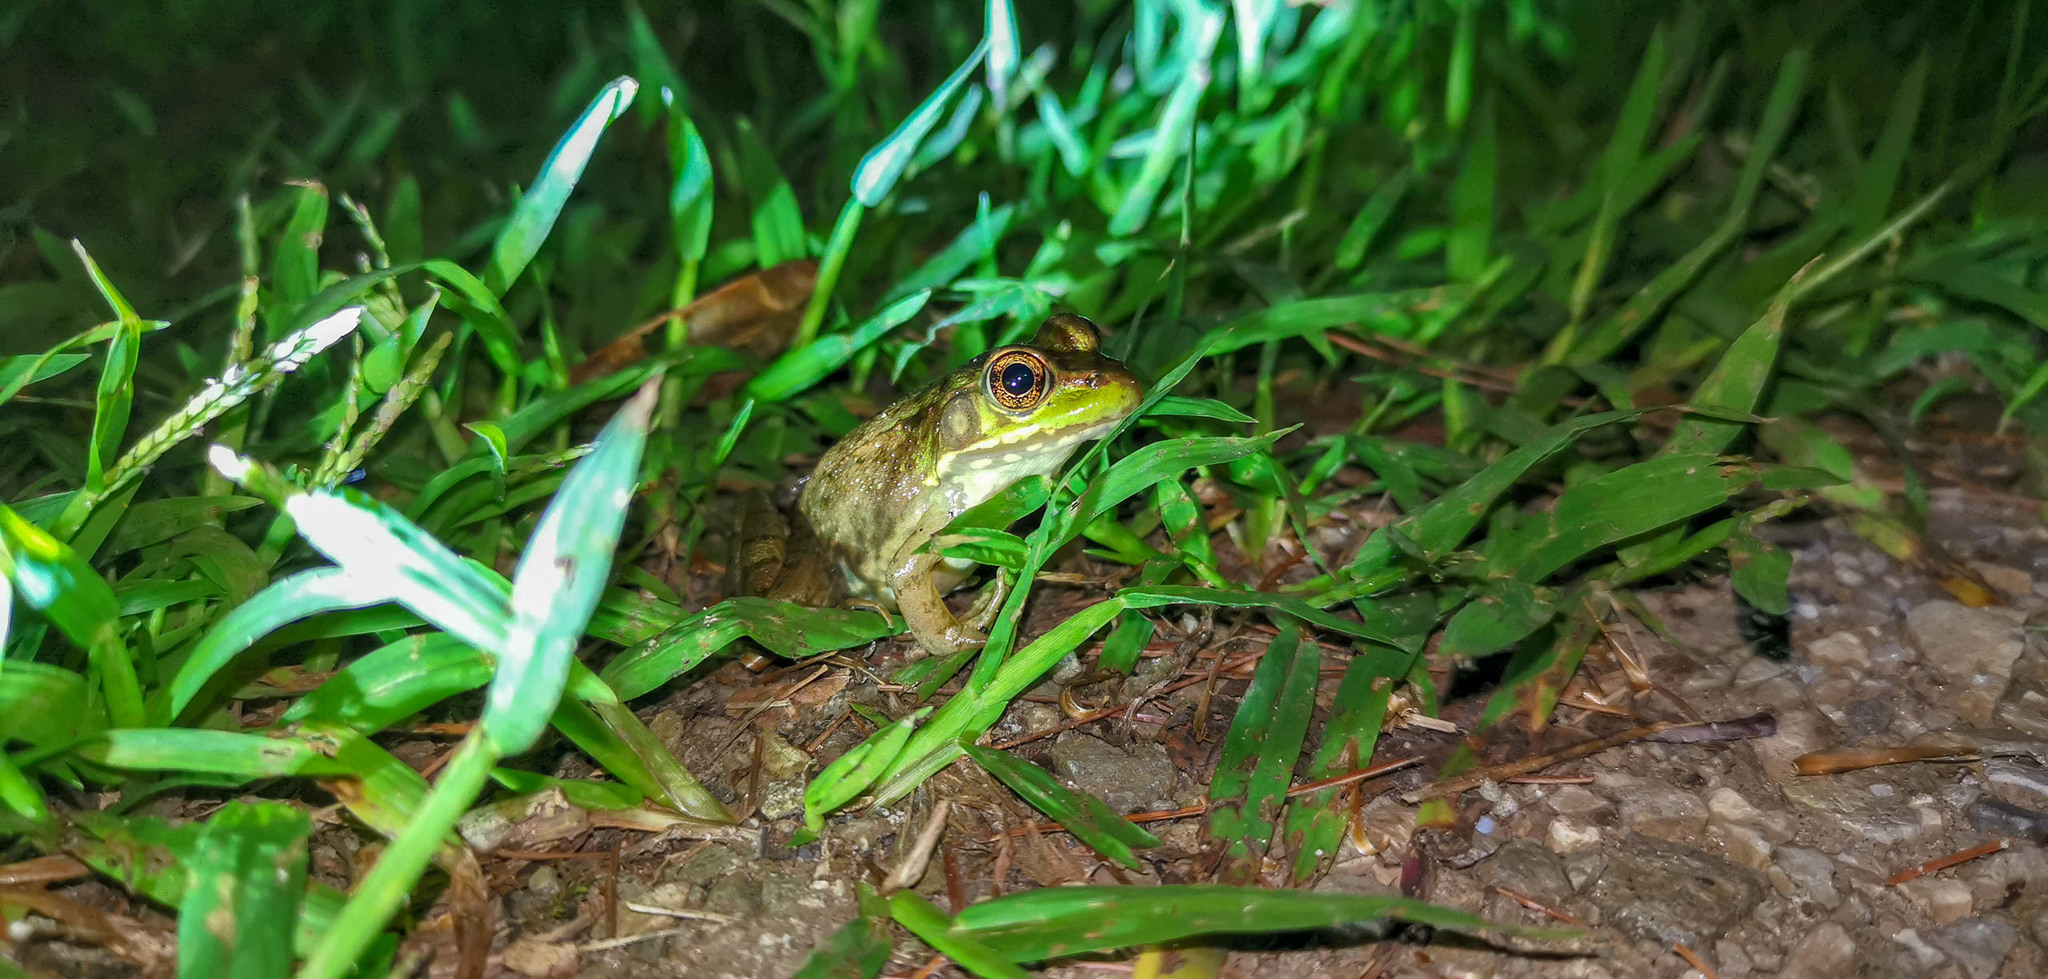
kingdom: Animalia
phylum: Chordata
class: Amphibia
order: Anura
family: Ranidae
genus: Lithobates
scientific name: Lithobates clamitans
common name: Green frog
